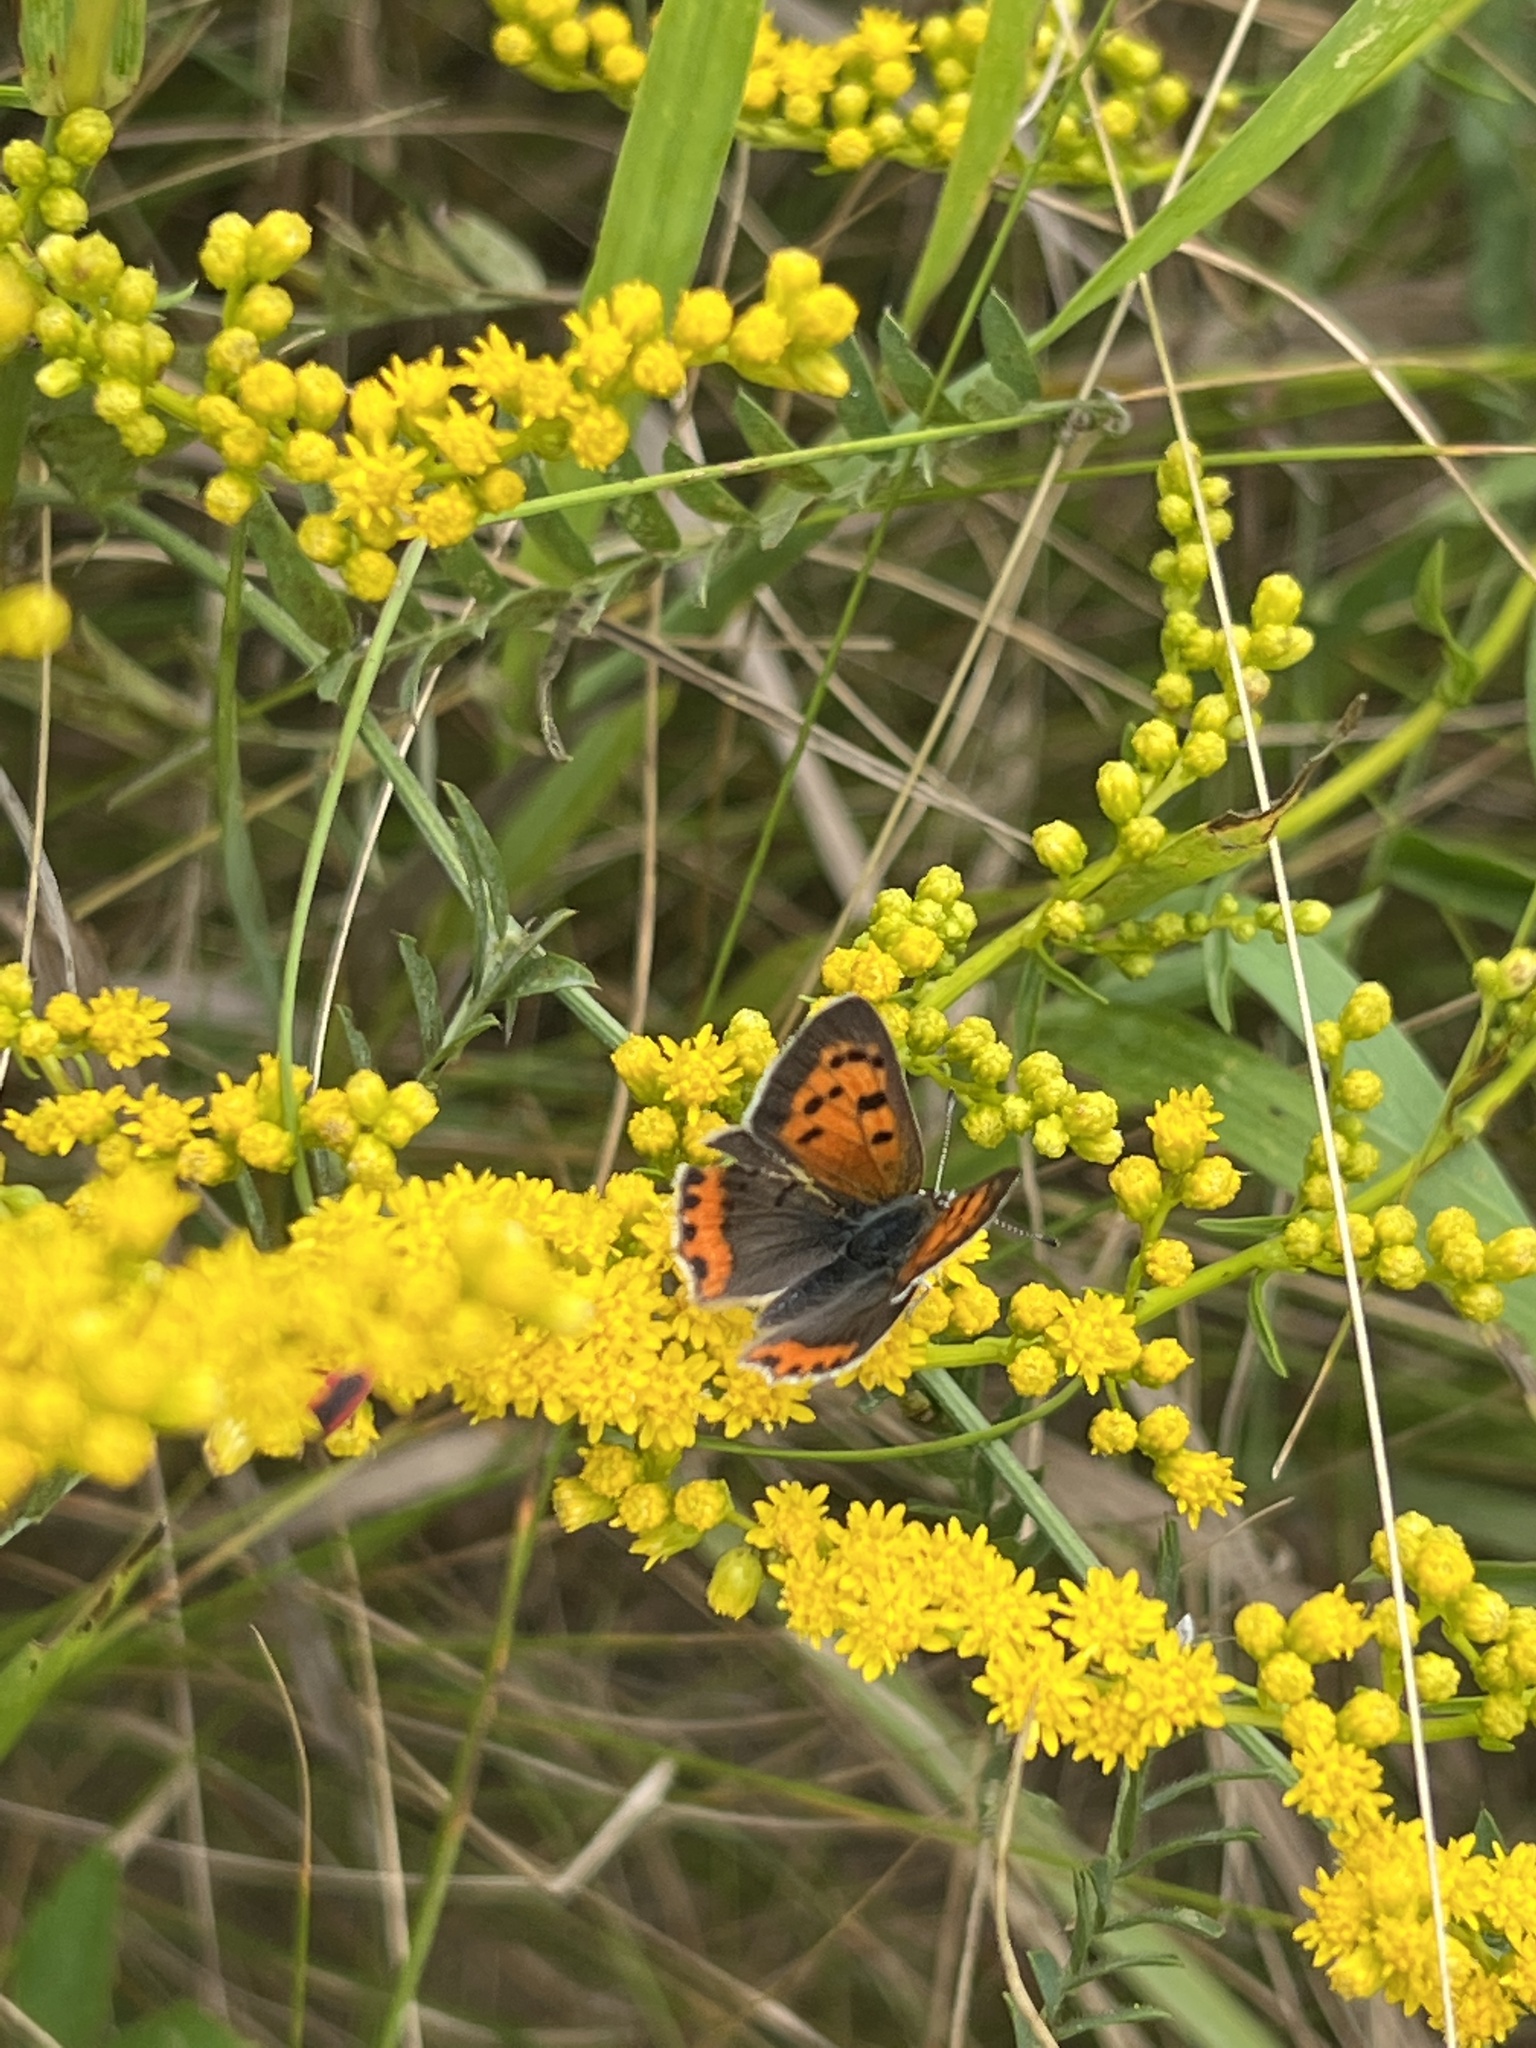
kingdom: Animalia
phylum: Arthropoda
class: Insecta
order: Lepidoptera
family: Lycaenidae
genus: Lycaena
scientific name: Lycaena hypophlaeas
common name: American copper
